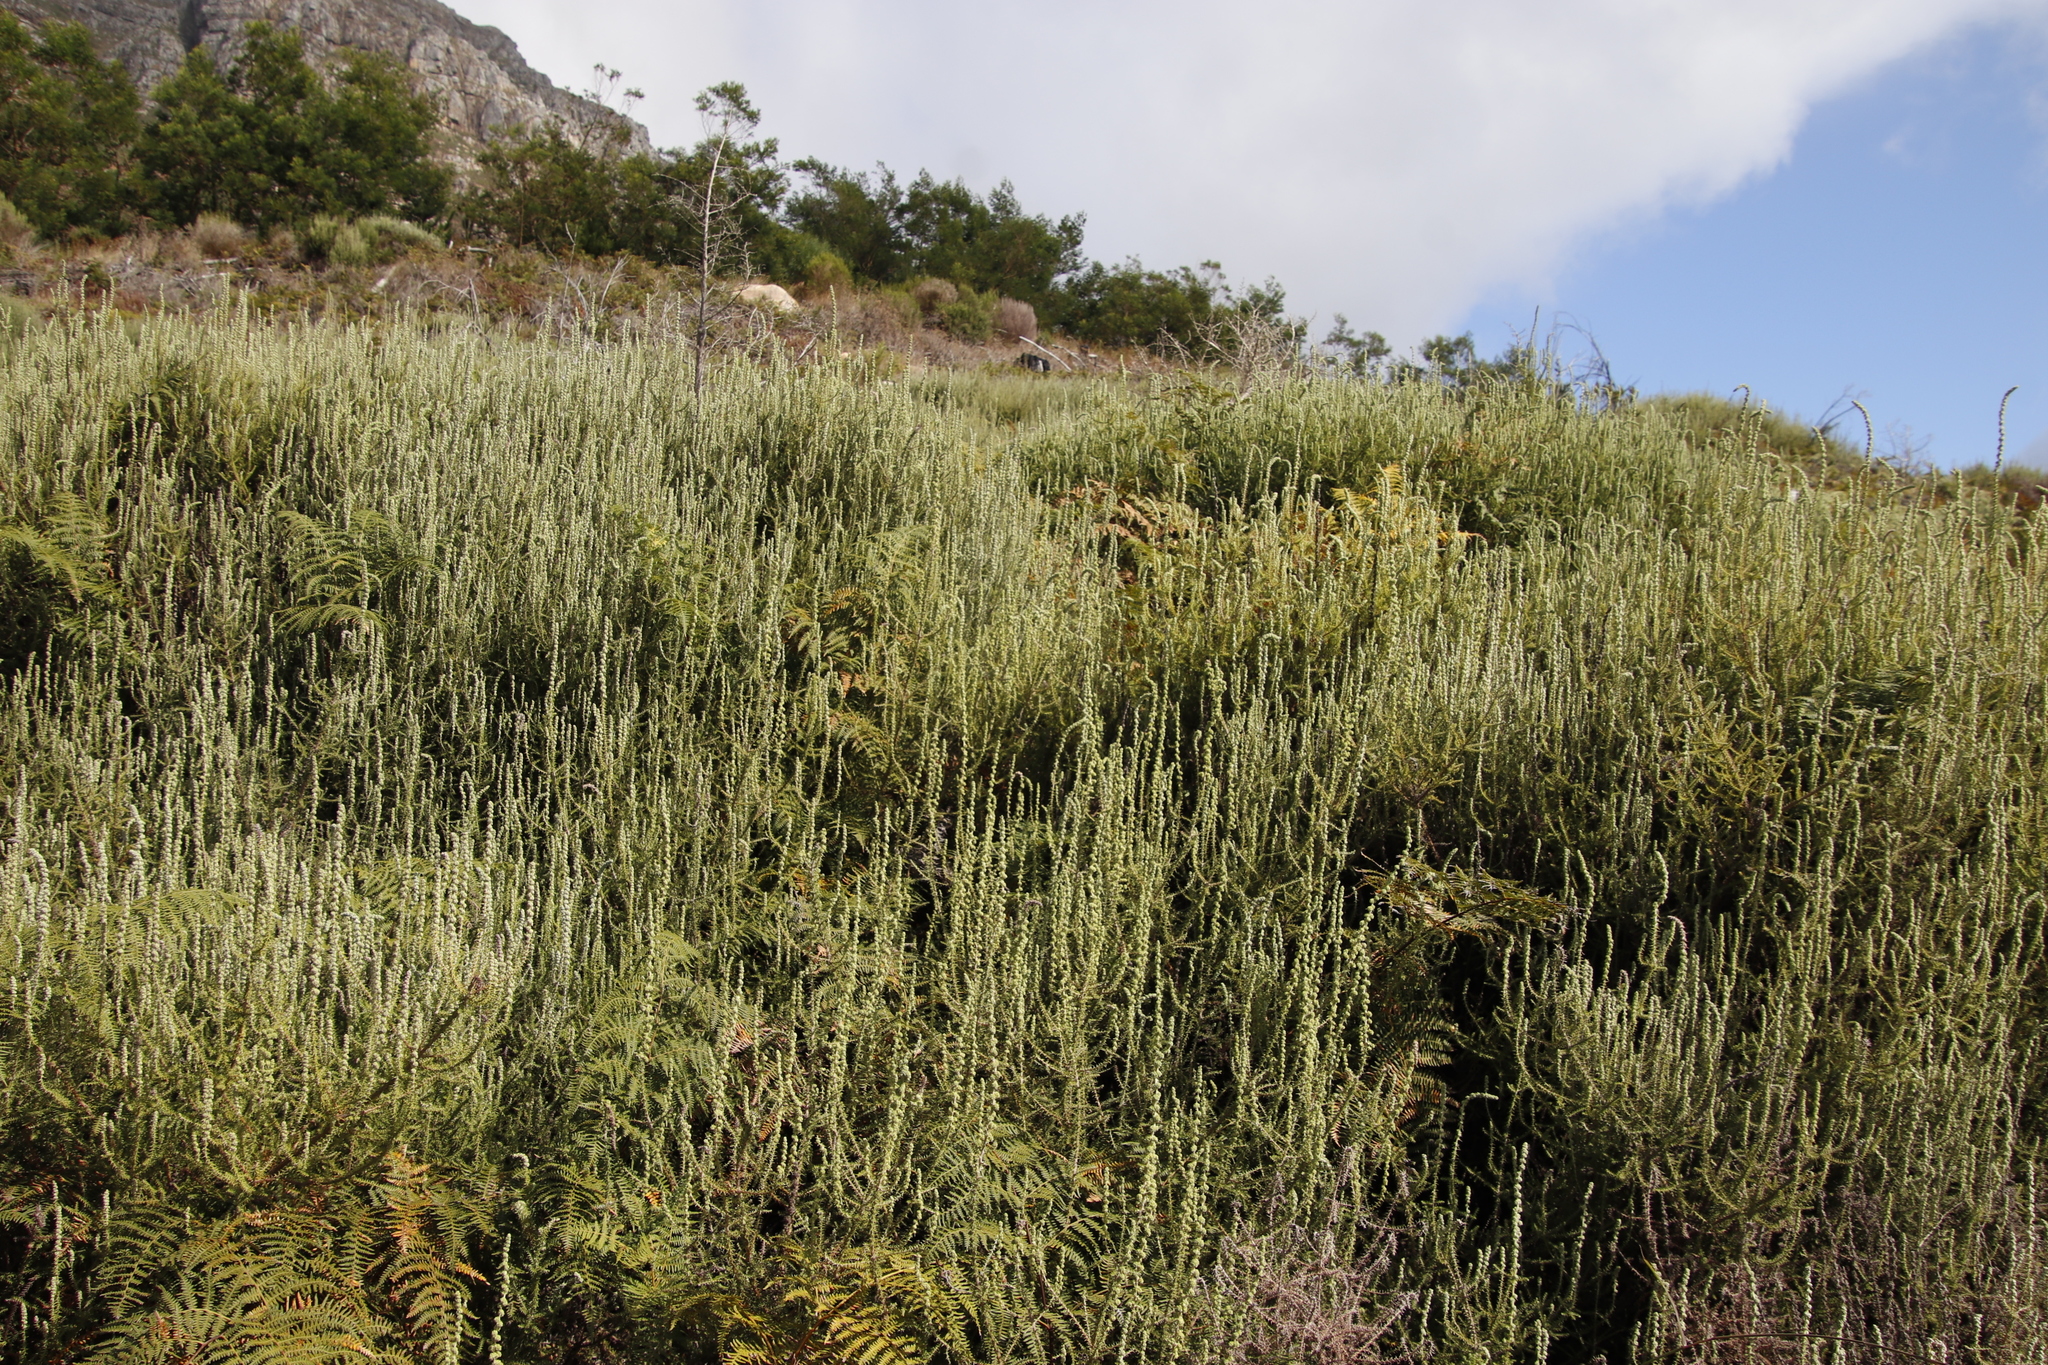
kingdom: Plantae
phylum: Tracheophyta
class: Magnoliopsida
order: Asterales
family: Asteraceae
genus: Seriphium
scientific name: Seriphium cinereum
